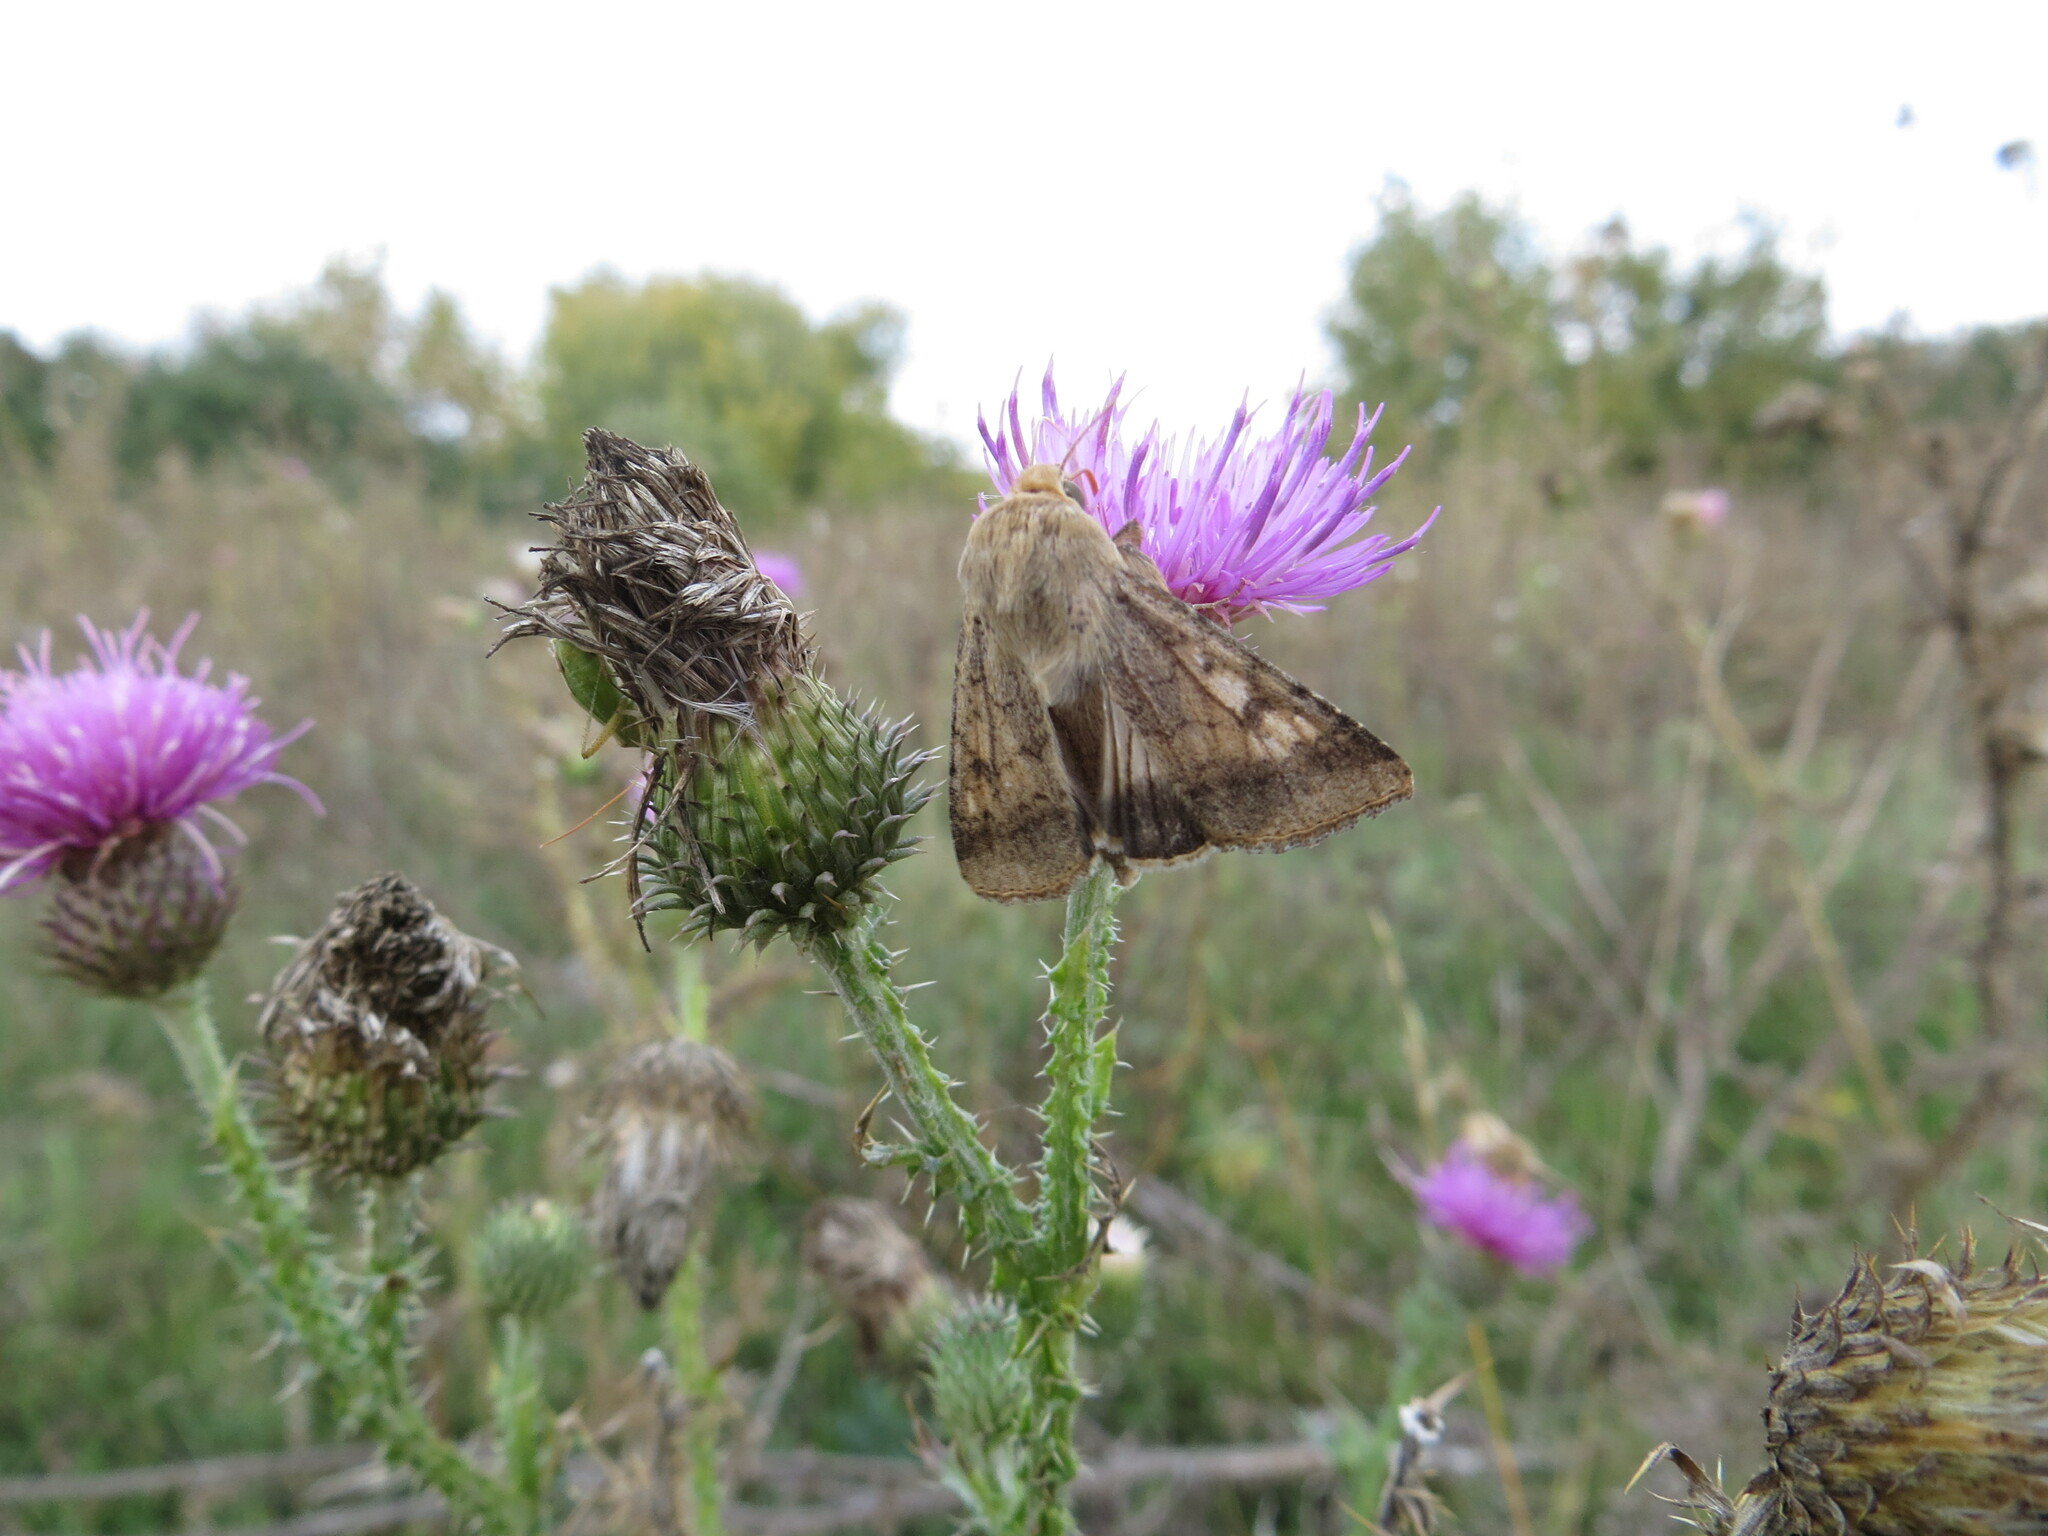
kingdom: Animalia
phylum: Arthropoda
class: Insecta
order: Lepidoptera
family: Noctuidae
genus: Helicoverpa
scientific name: Helicoverpa armigera
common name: Cotton bollworm
